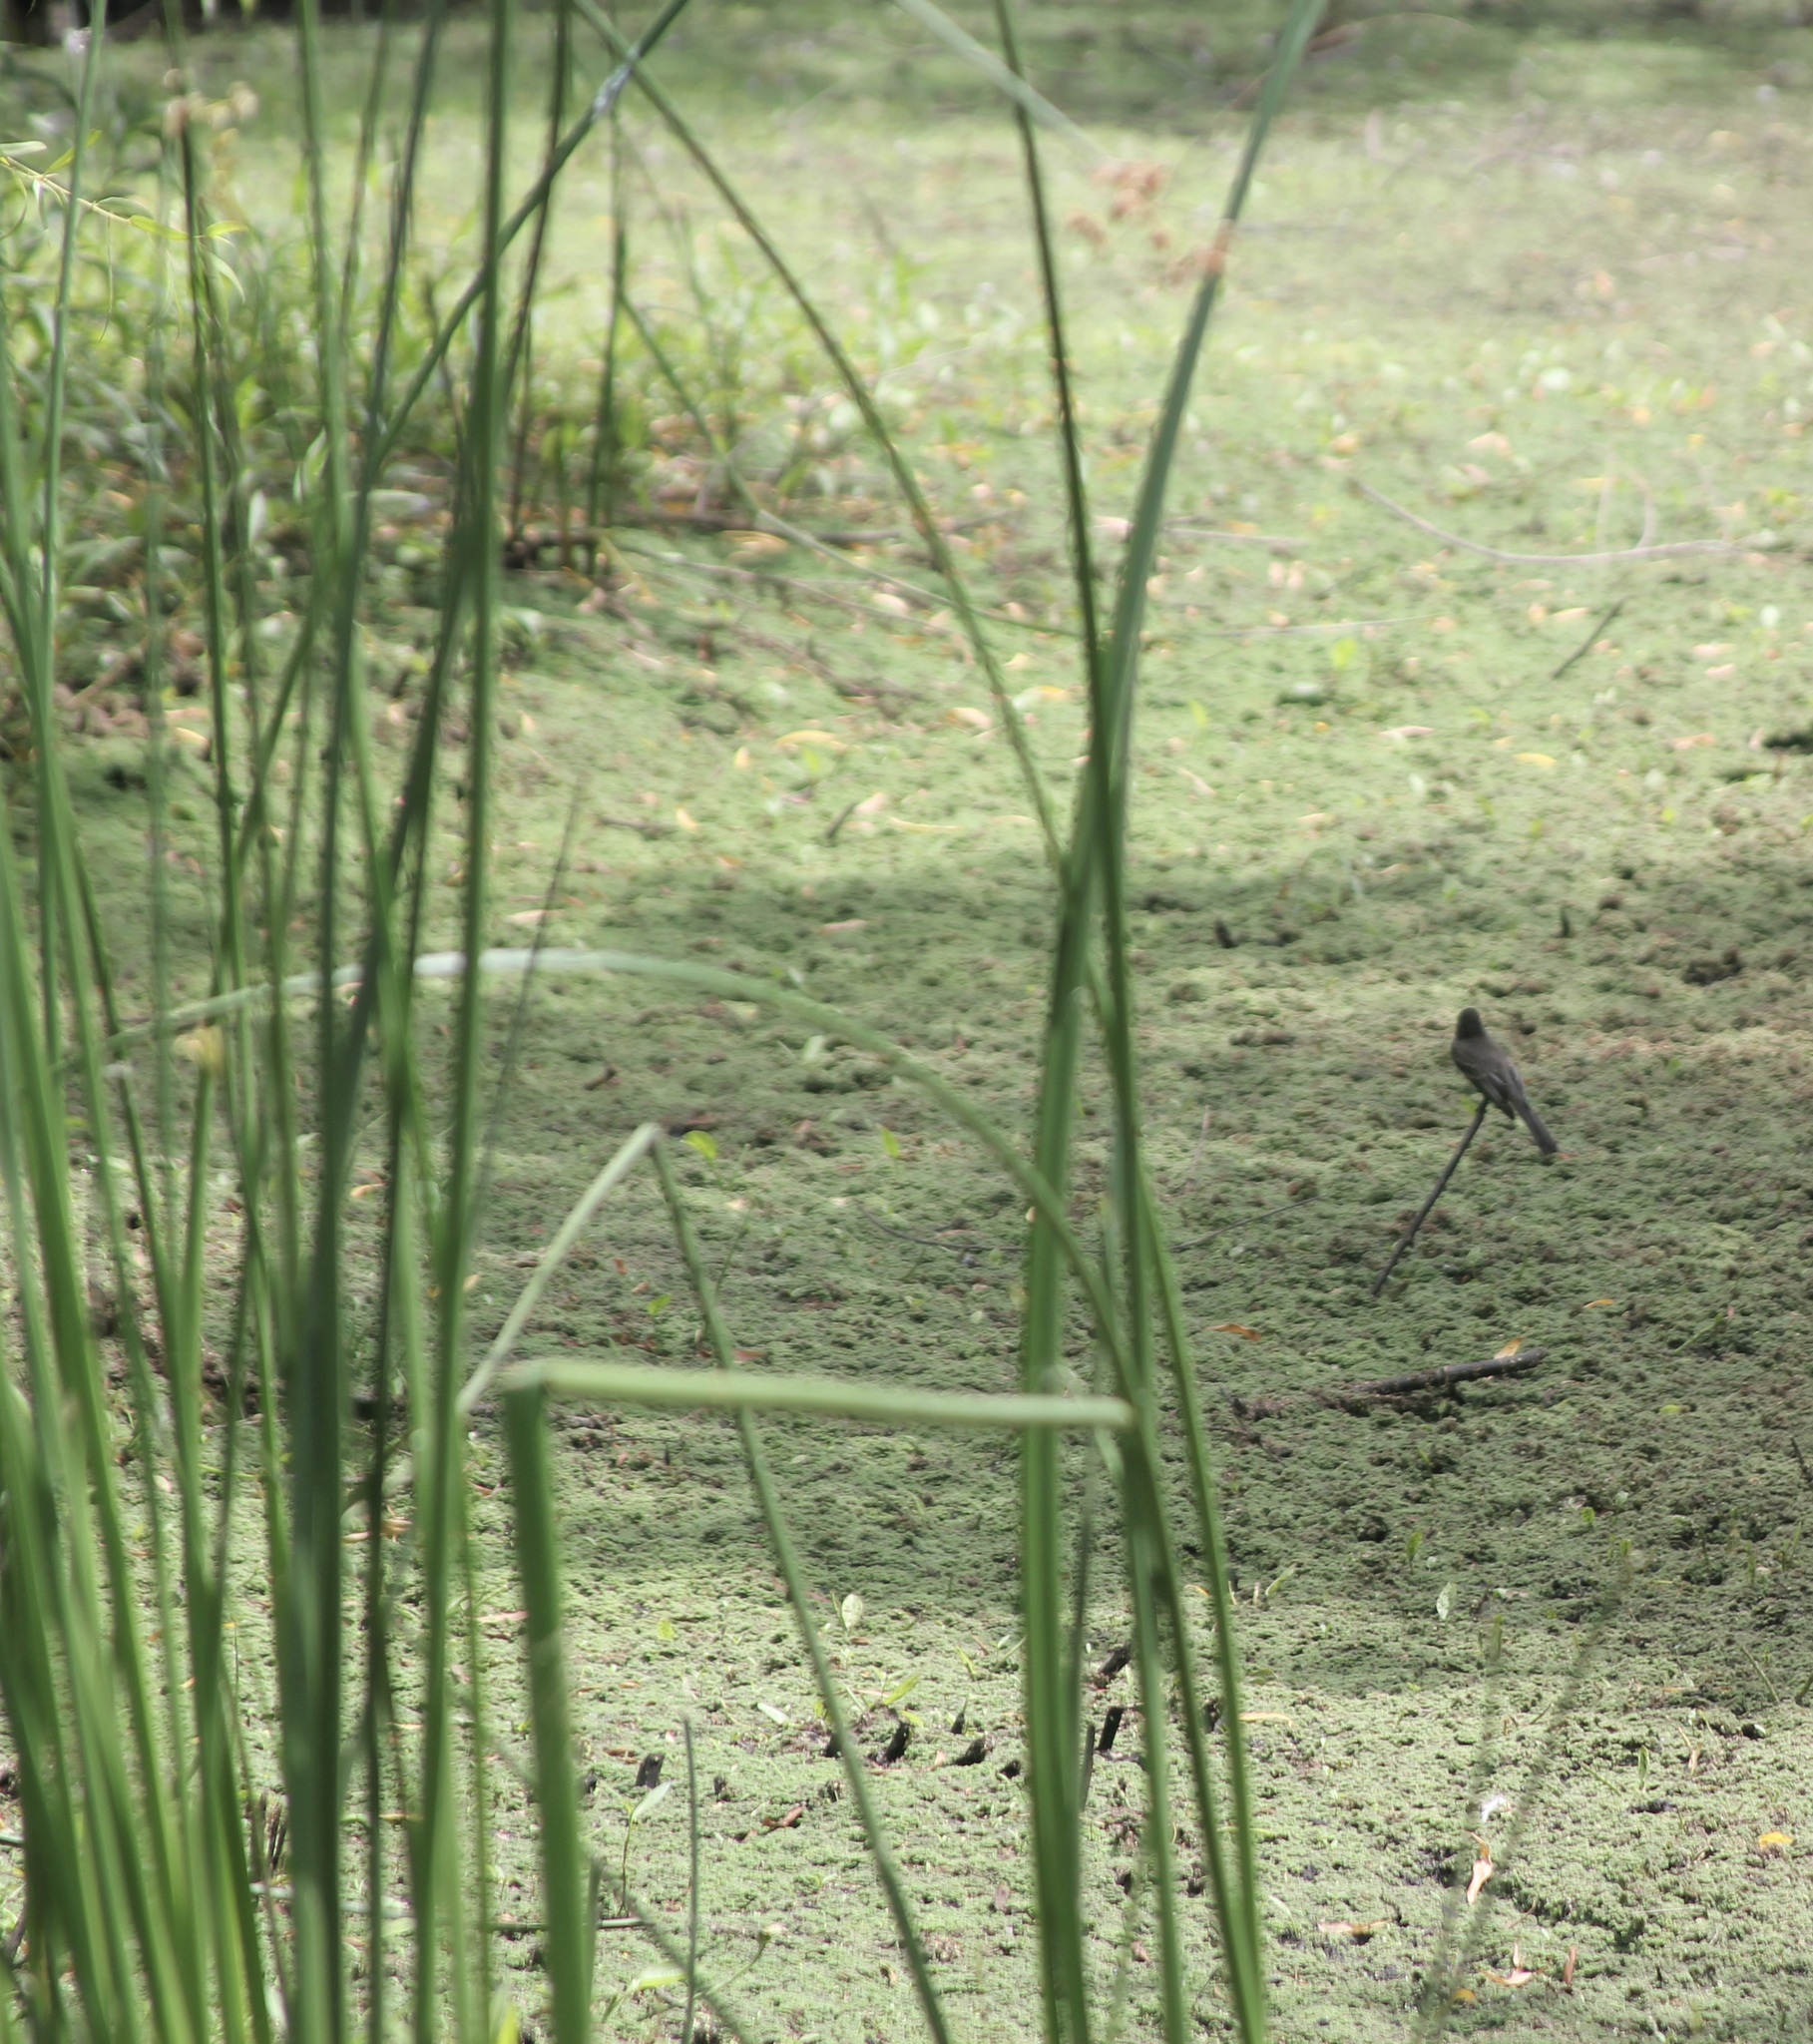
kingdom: Animalia
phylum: Chordata
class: Aves
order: Passeriformes
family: Tyrannidae
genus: Sayornis
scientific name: Sayornis nigricans
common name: Black phoebe
